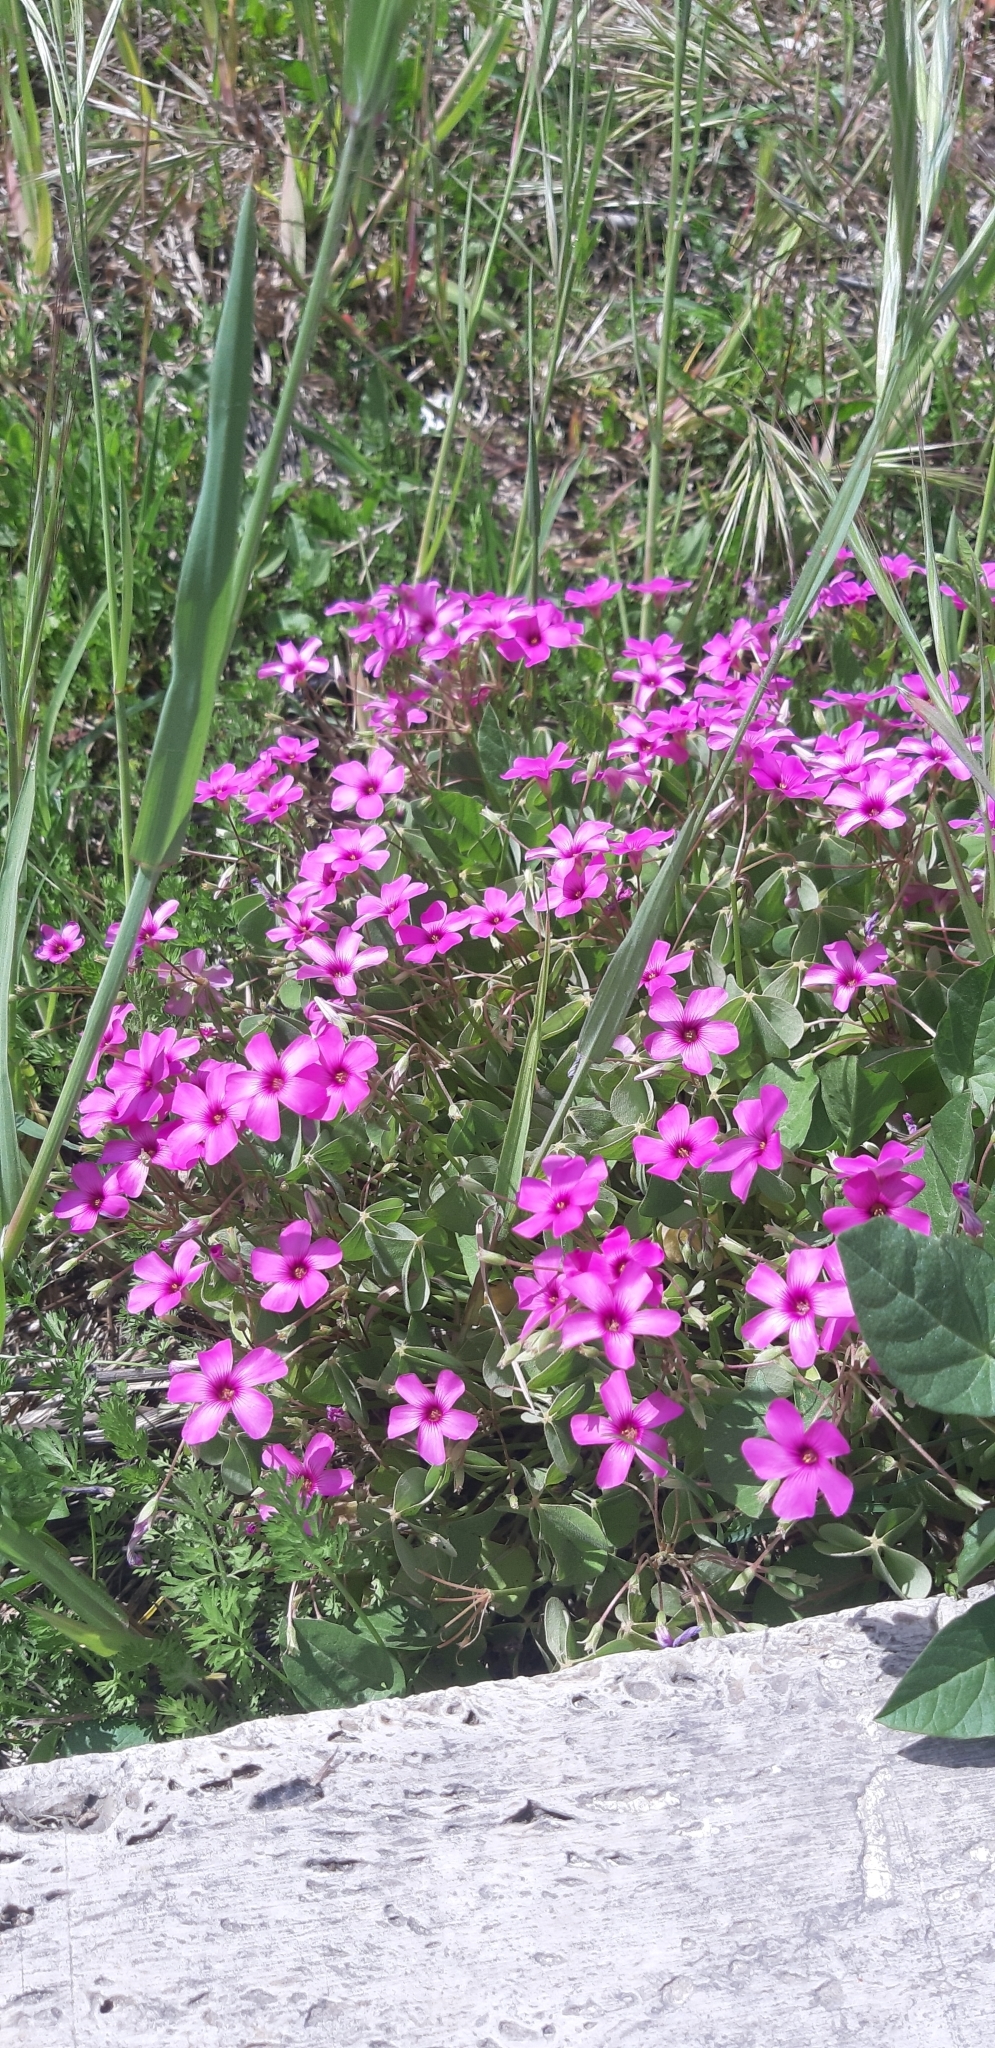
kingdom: Plantae
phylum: Tracheophyta
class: Magnoliopsida
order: Oxalidales
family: Oxalidaceae
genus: Oxalis
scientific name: Oxalis articulata
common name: Pink-sorrel
